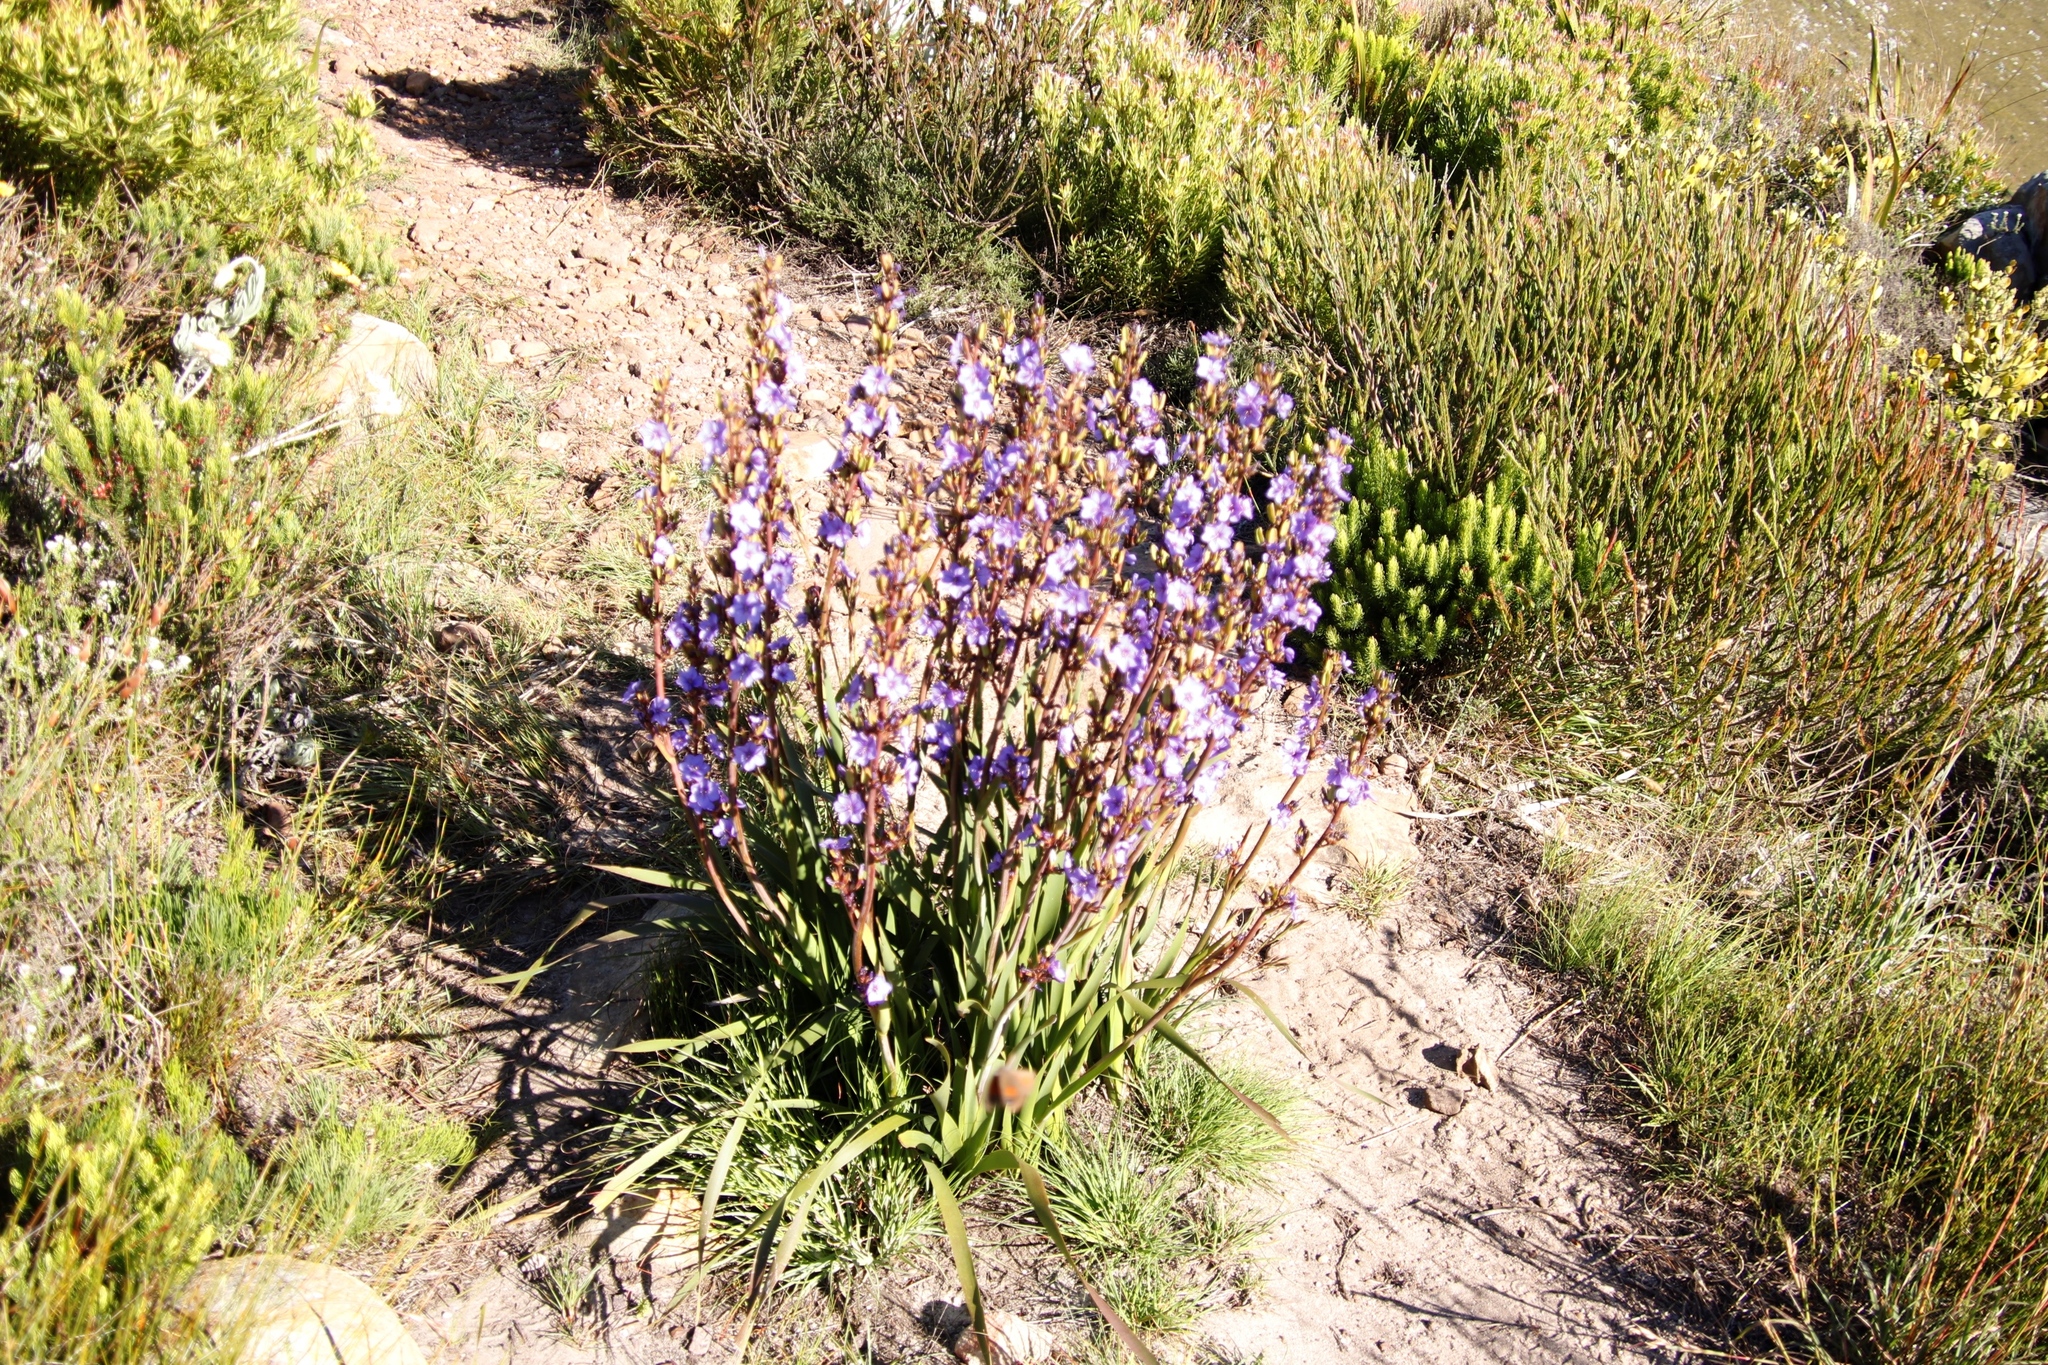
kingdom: Plantae
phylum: Tracheophyta
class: Liliopsida
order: Asparagales
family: Iridaceae
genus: Aristea
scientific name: Aristea bakeri
